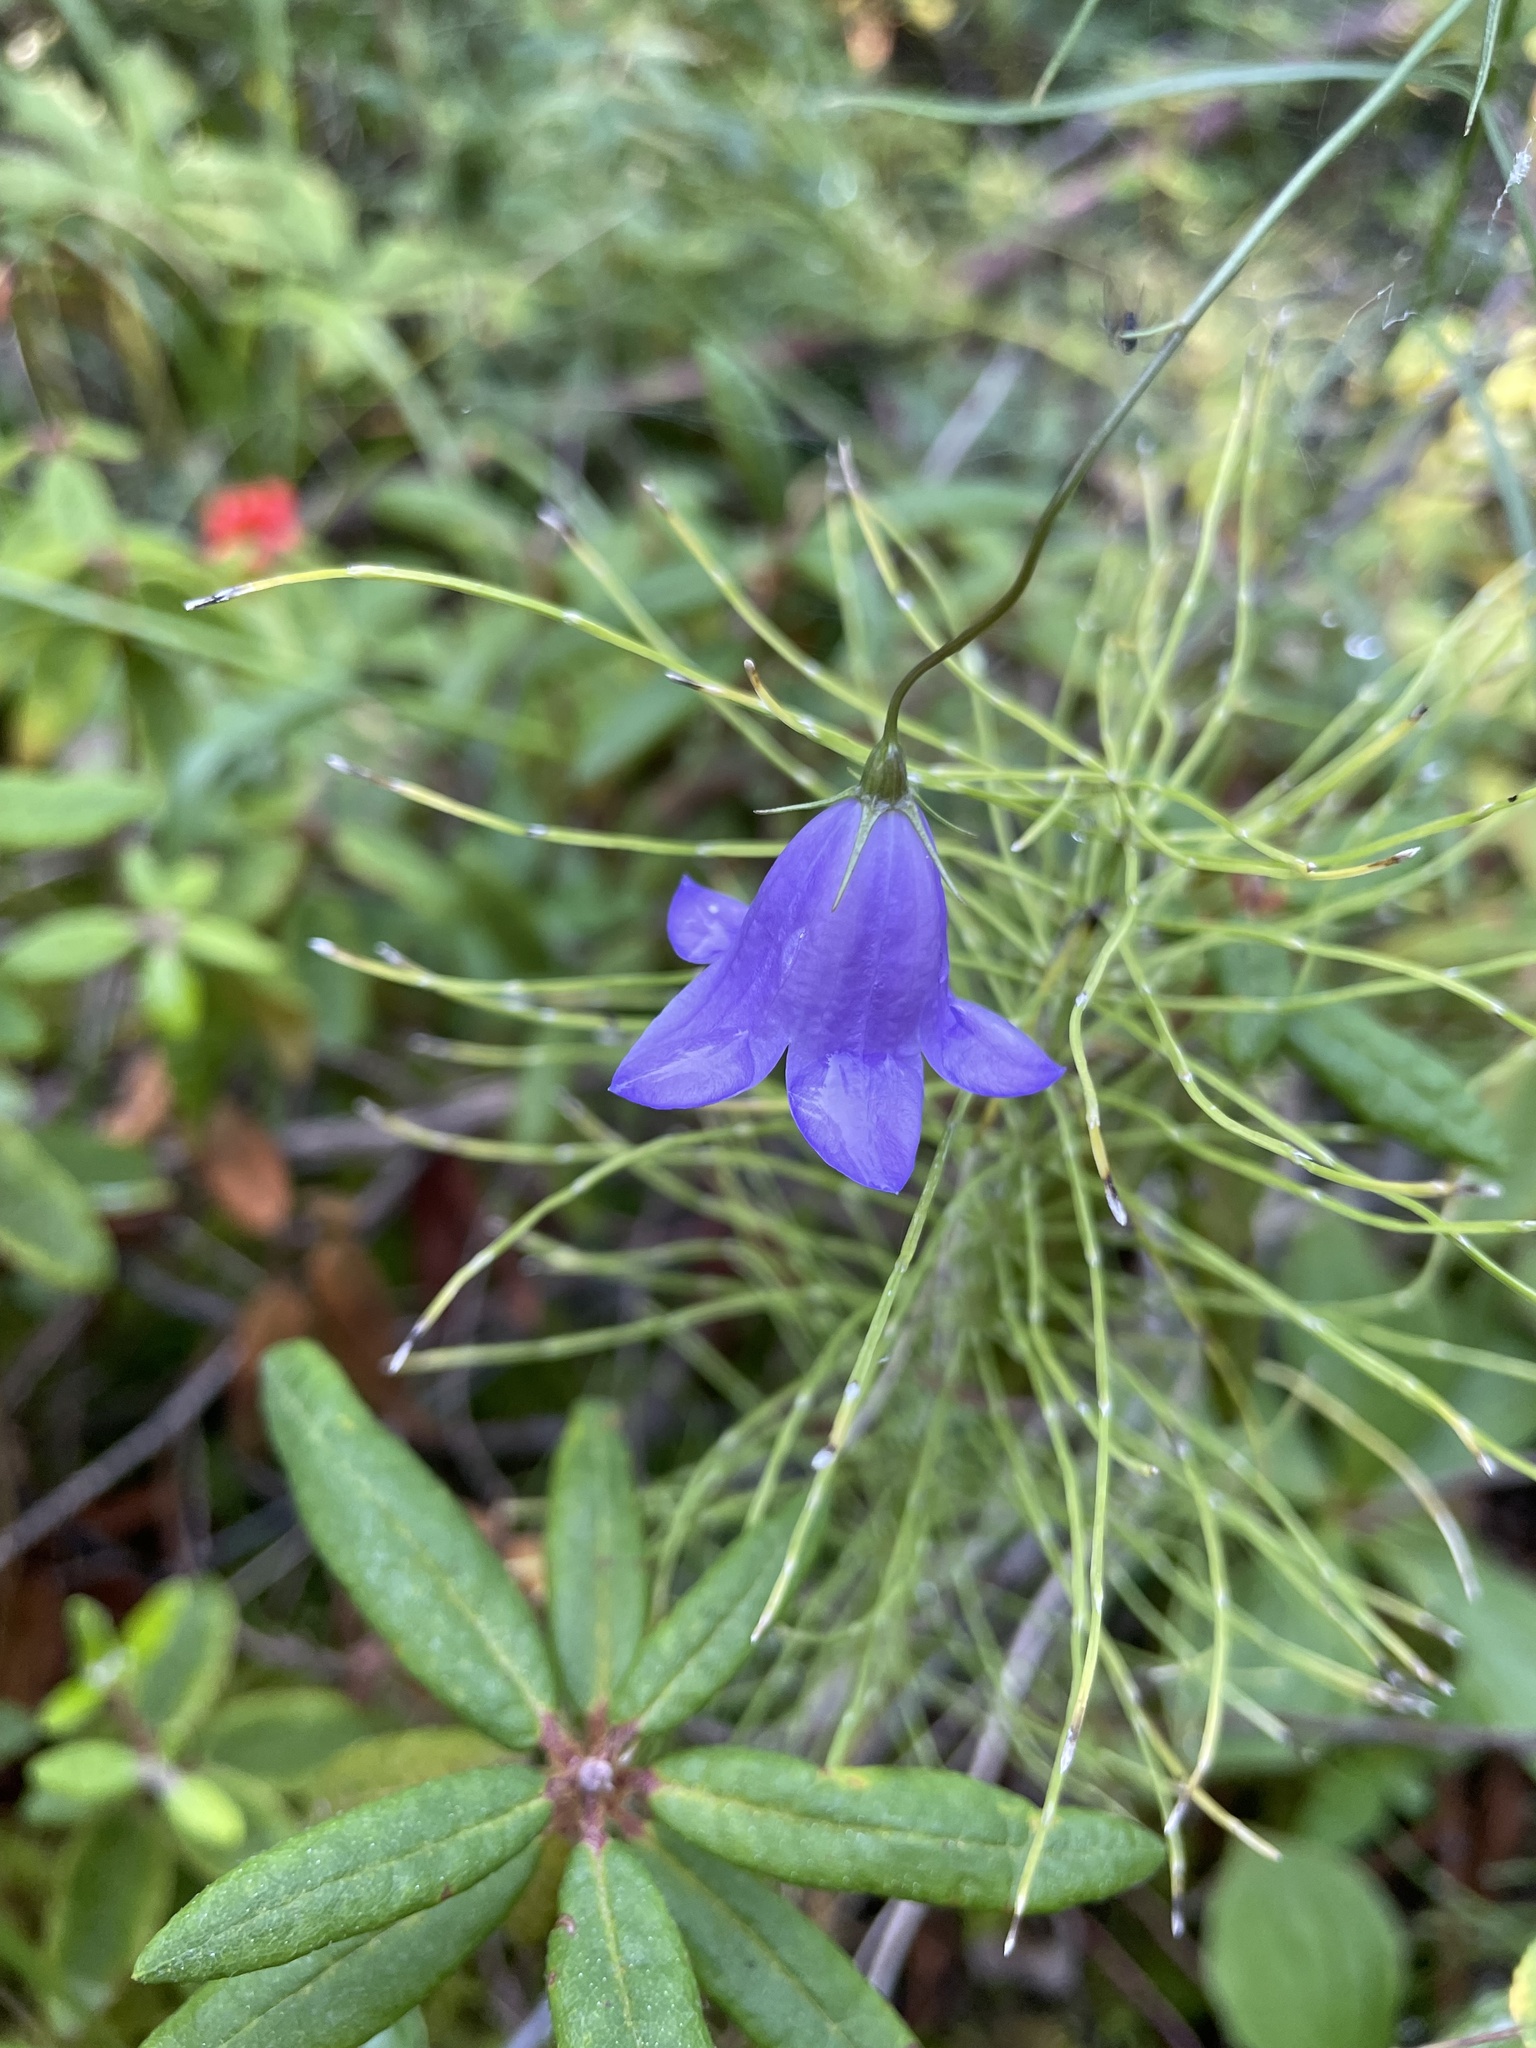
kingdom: Plantae
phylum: Tracheophyta
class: Magnoliopsida
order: Asterales
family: Campanulaceae
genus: Campanula
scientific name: Campanula alaskana
